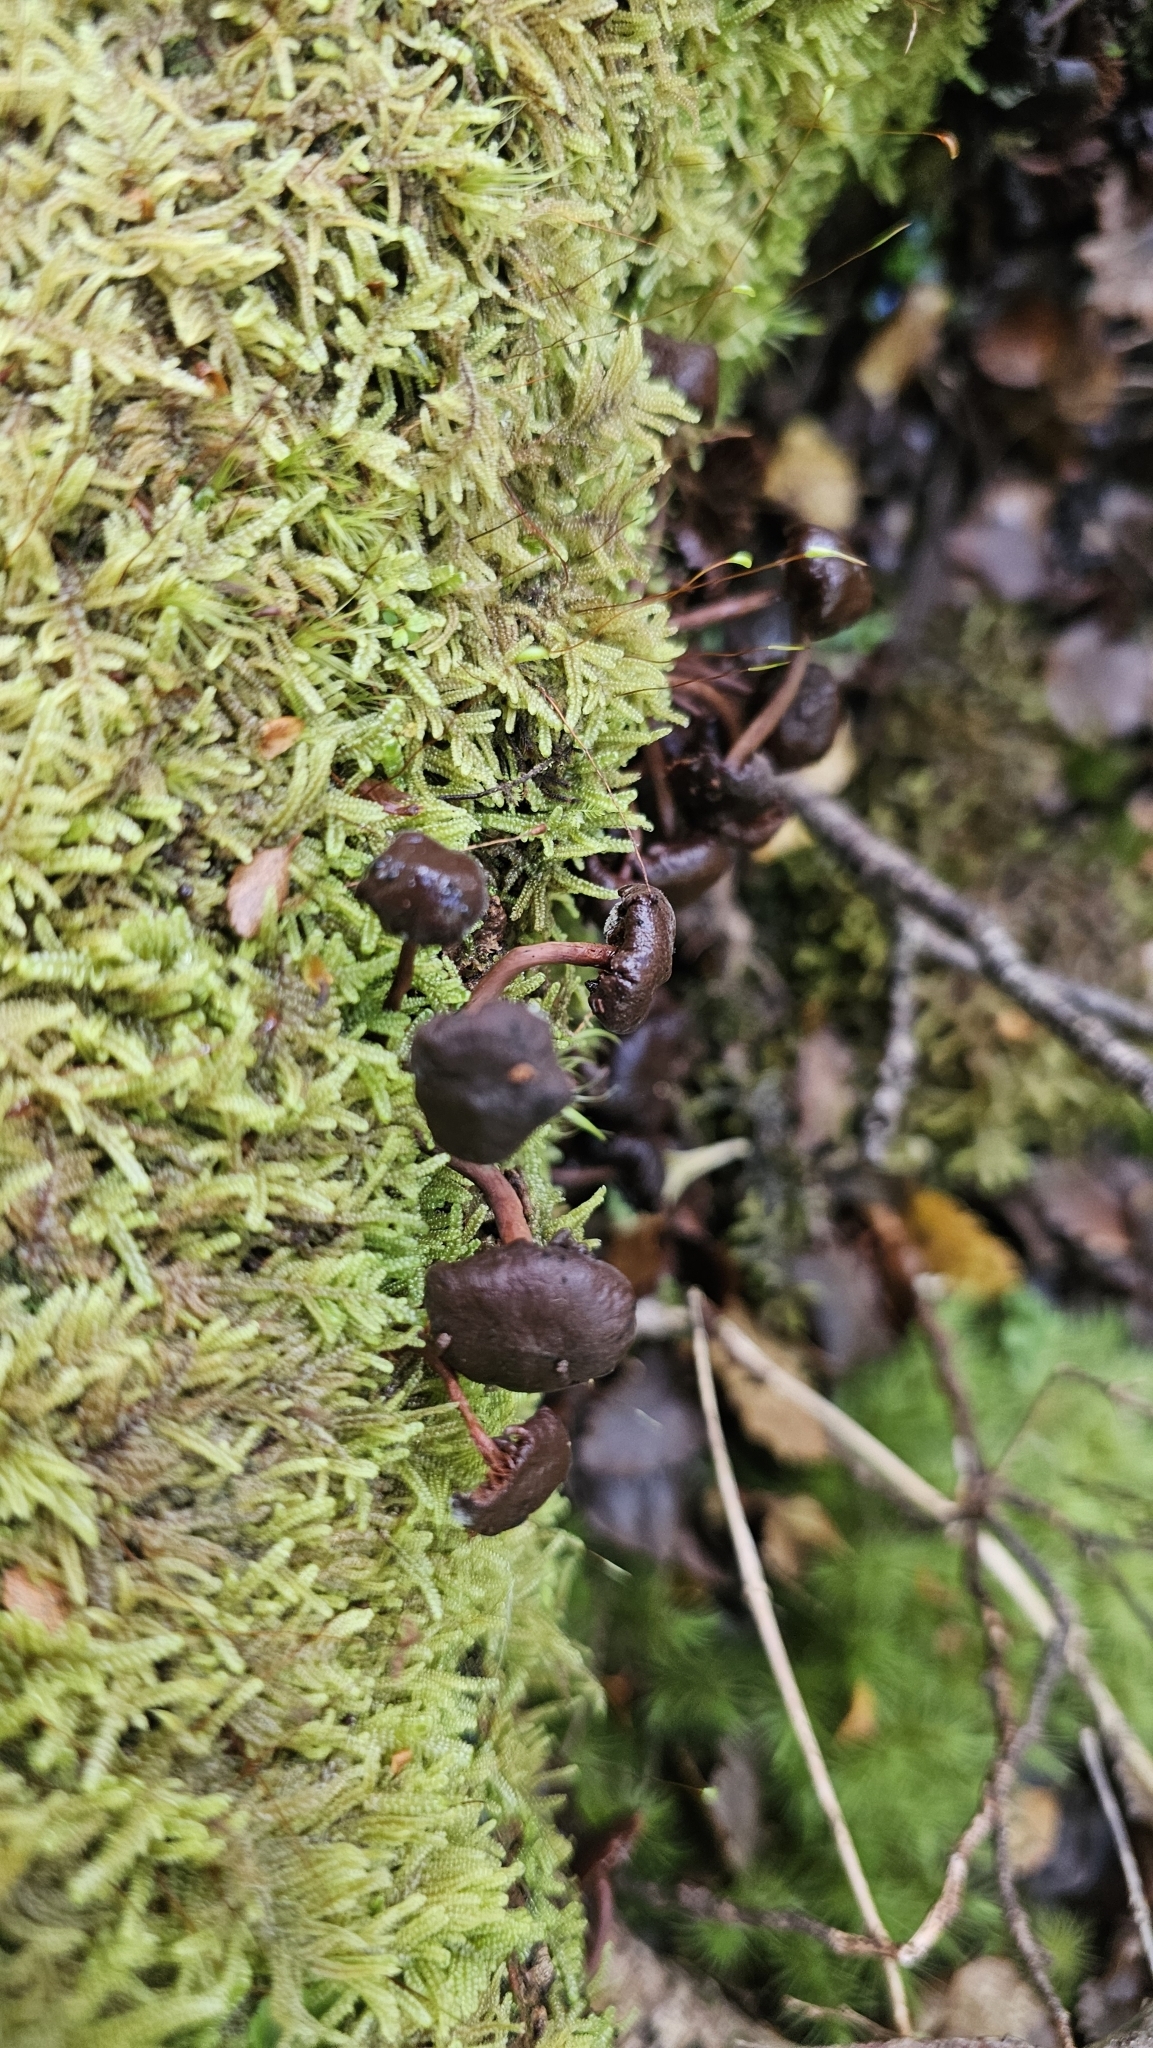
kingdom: Fungi
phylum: Basidiomycota
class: Agaricomycetes
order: Agaricales
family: Strophariaceae
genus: Hypholoma
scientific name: Hypholoma brunneum
